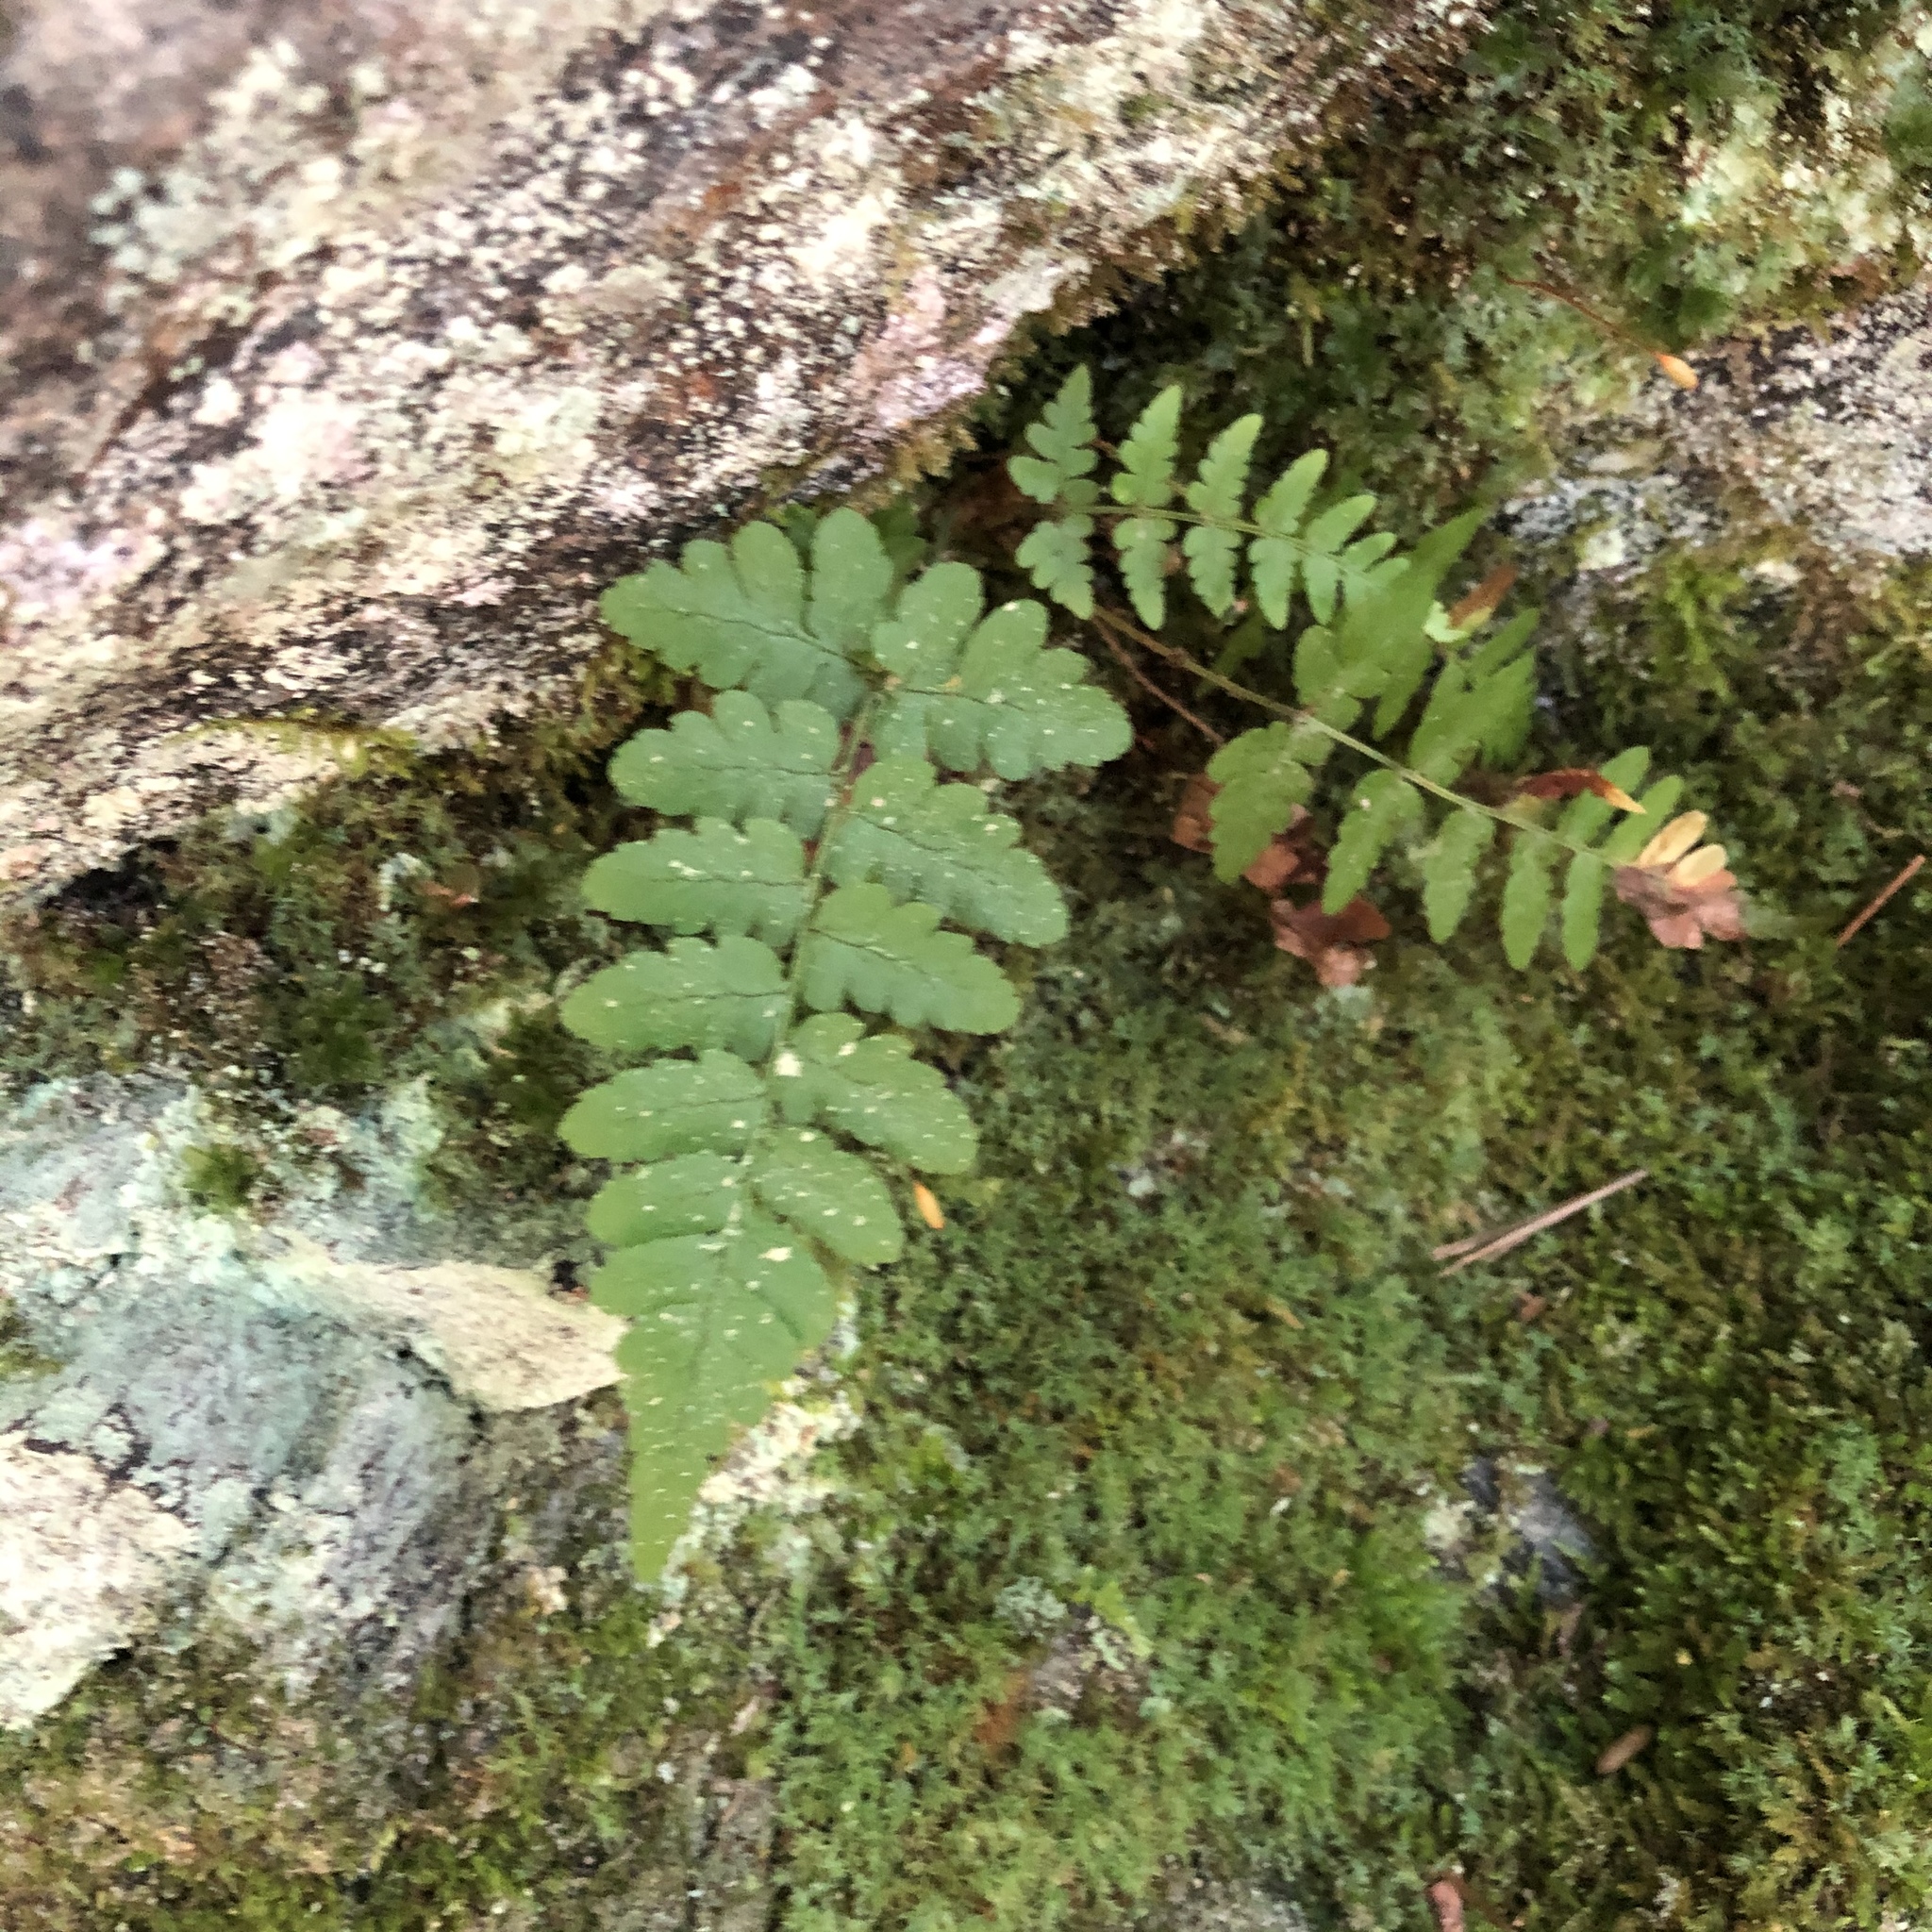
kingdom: Plantae
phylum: Tracheophyta
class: Polypodiopsida
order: Polypodiales
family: Dryopteridaceae
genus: Dryopteris
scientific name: Dryopteris marginalis
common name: Marginal wood fern
